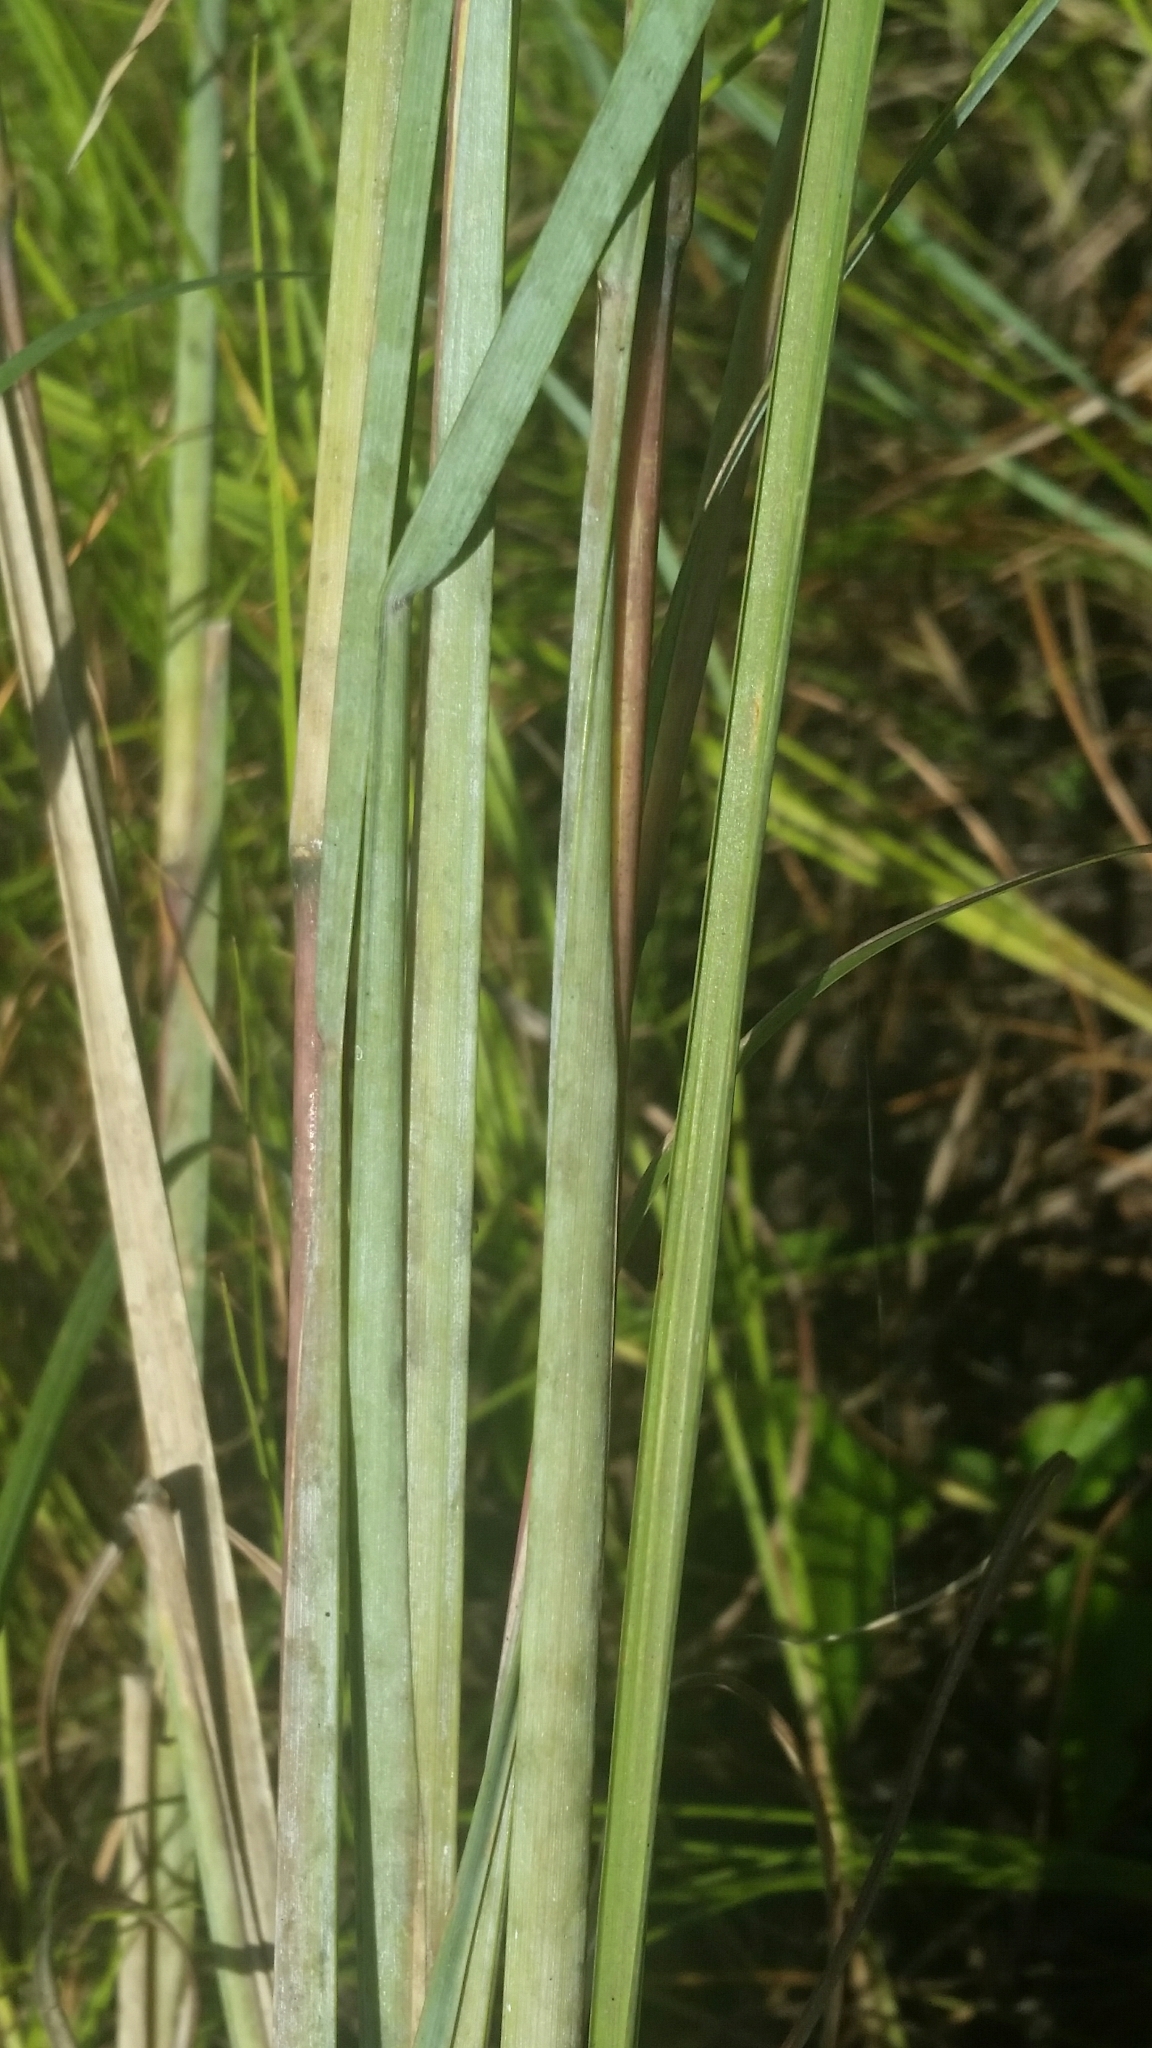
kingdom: Plantae
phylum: Tracheophyta
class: Liliopsida
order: Poales
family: Poaceae
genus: Andropogon
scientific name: Andropogon cretaceus
